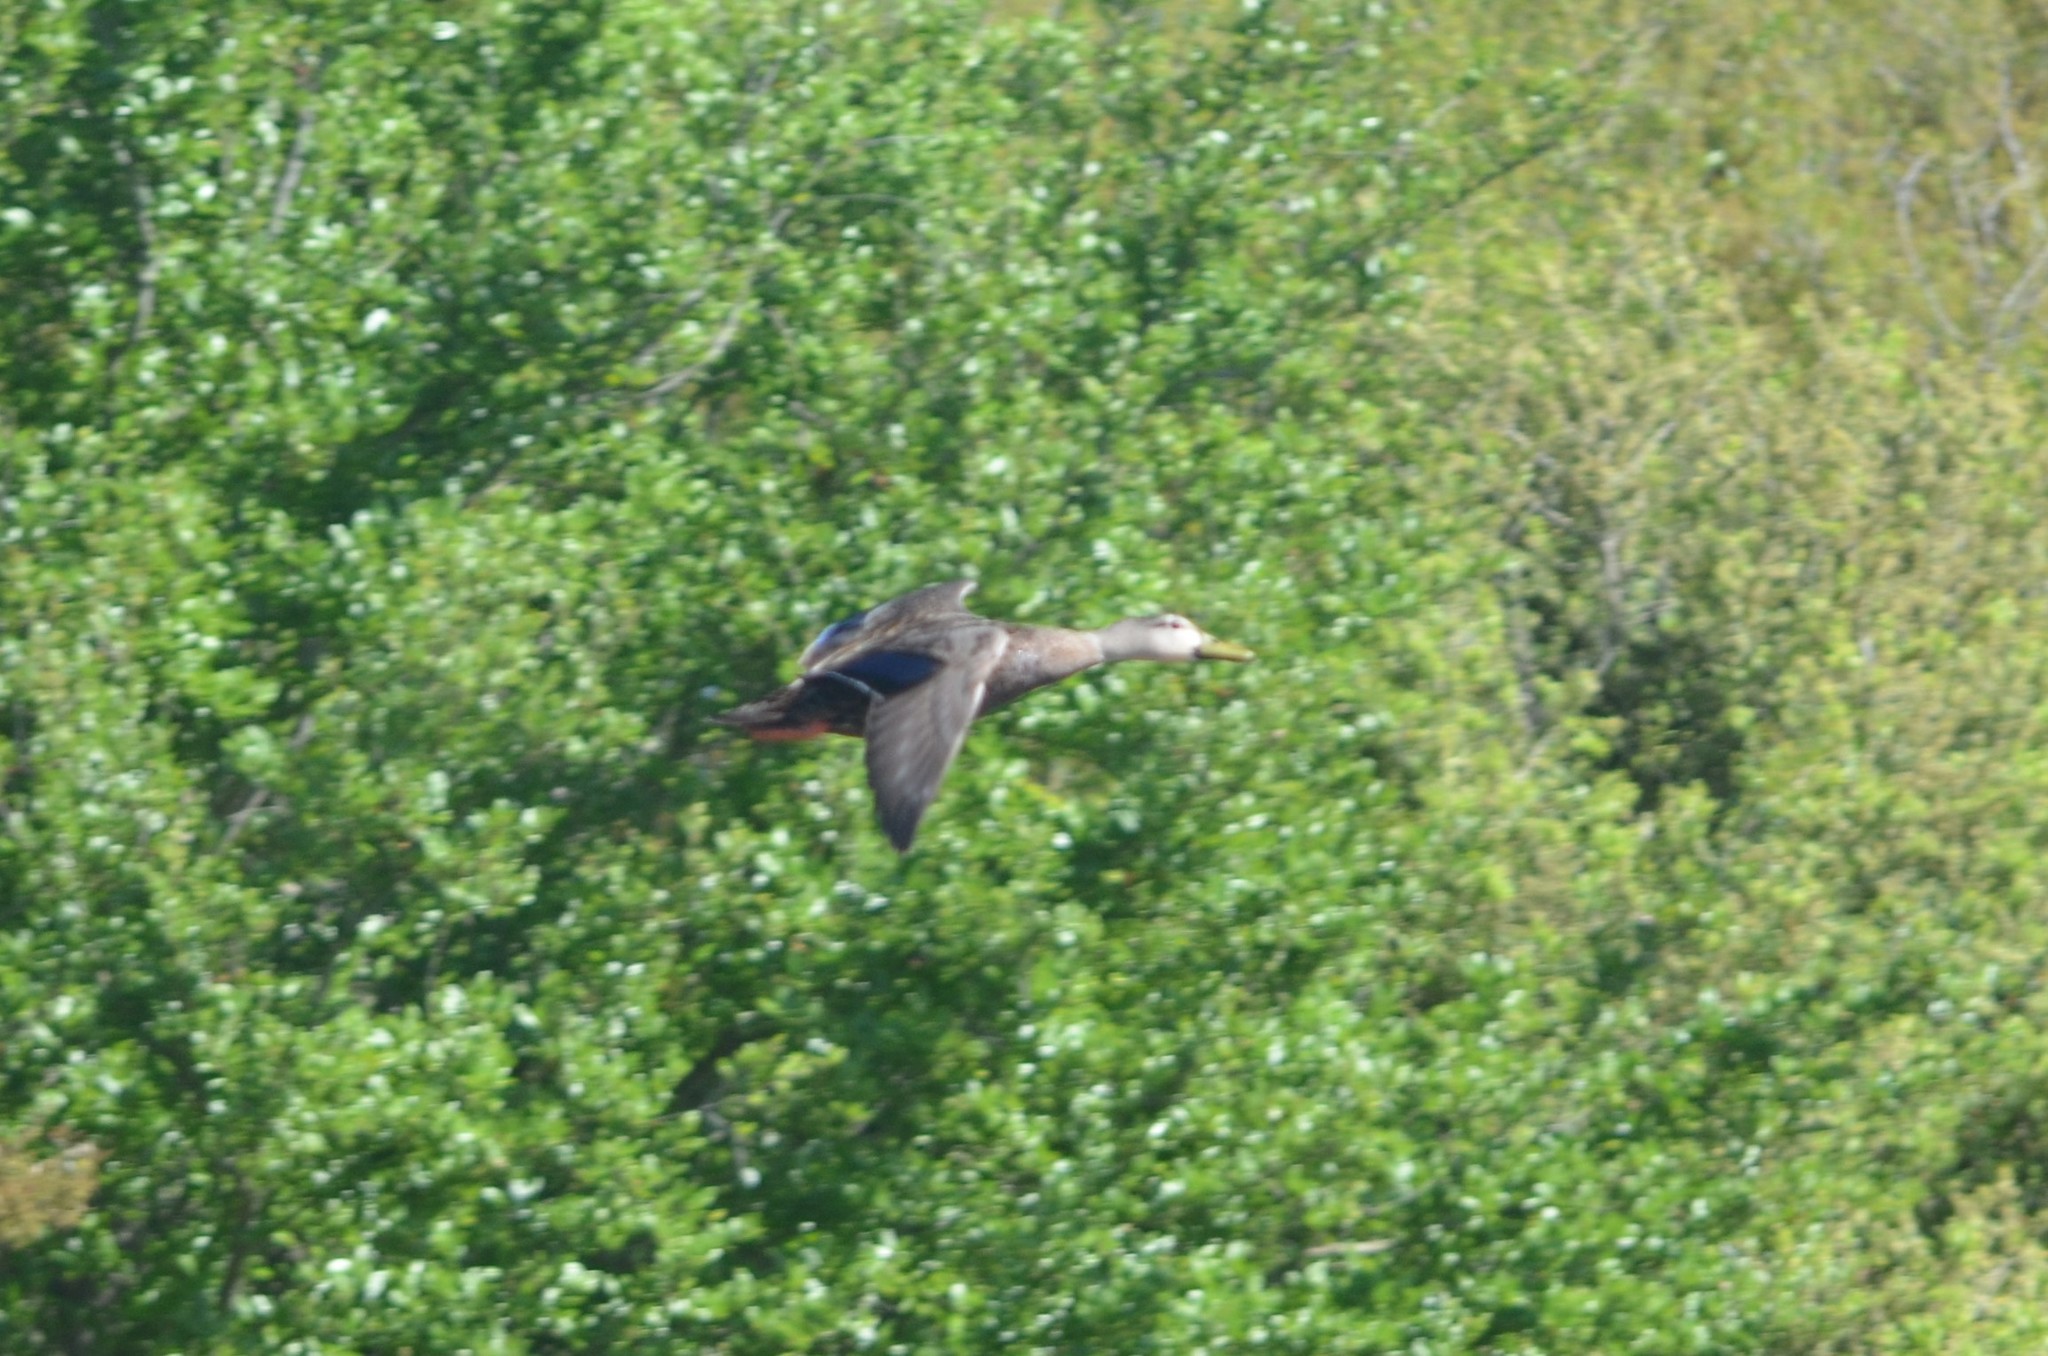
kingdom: Animalia
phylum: Chordata
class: Aves
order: Anseriformes
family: Anatidae
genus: Anas
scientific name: Anas fulvigula
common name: Mottled duck
